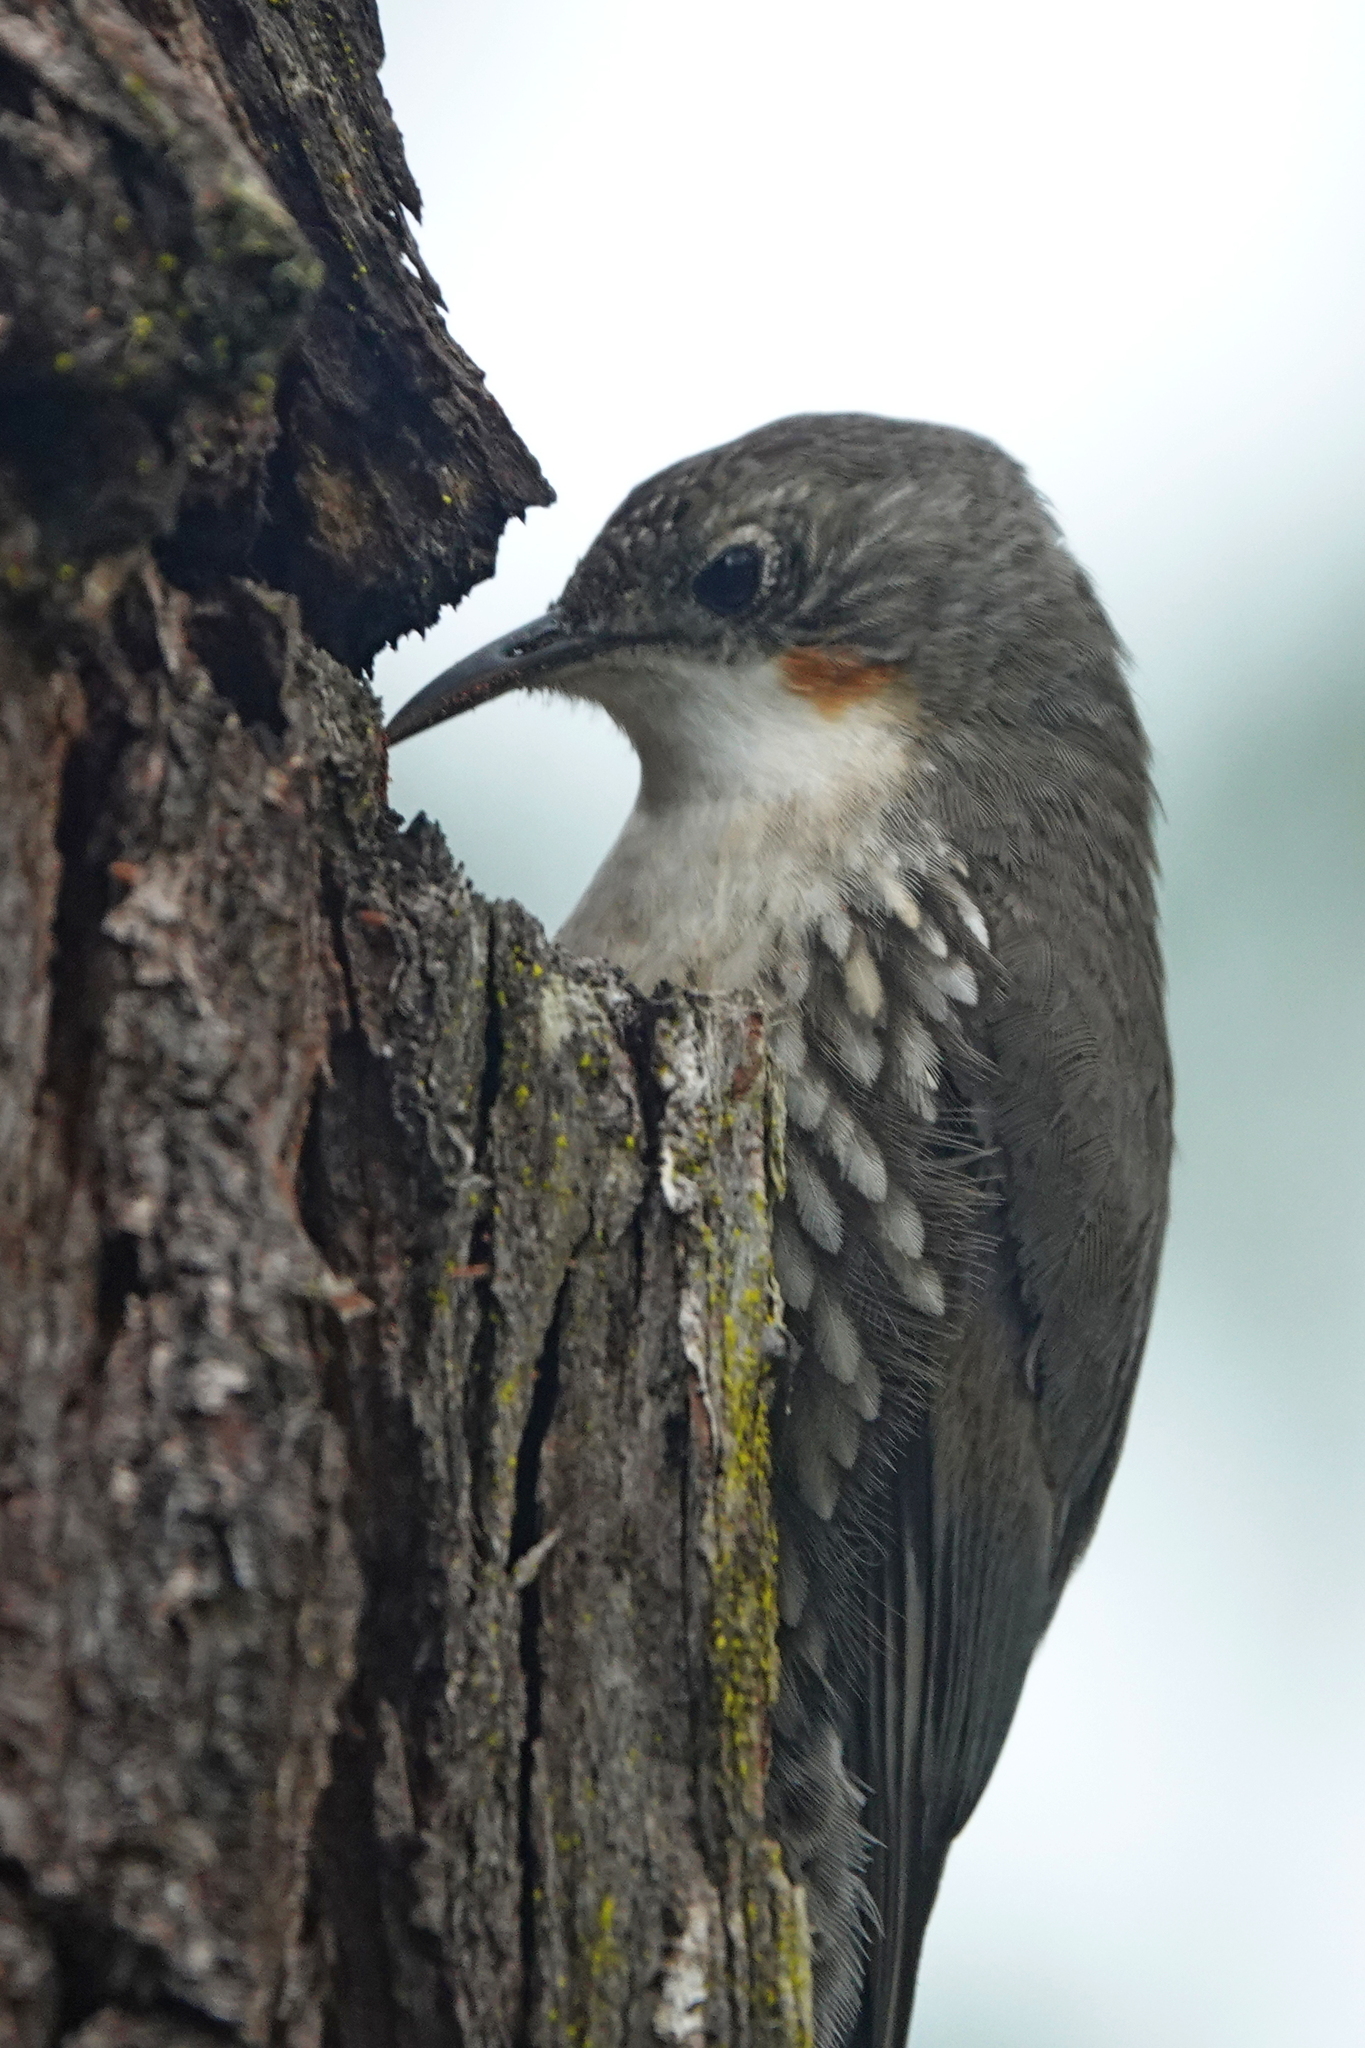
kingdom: Animalia
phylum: Chordata
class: Aves
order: Passeriformes
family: Climacteridae
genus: Cormobates
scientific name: Cormobates leucophaea
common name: White-throated treecreeper
